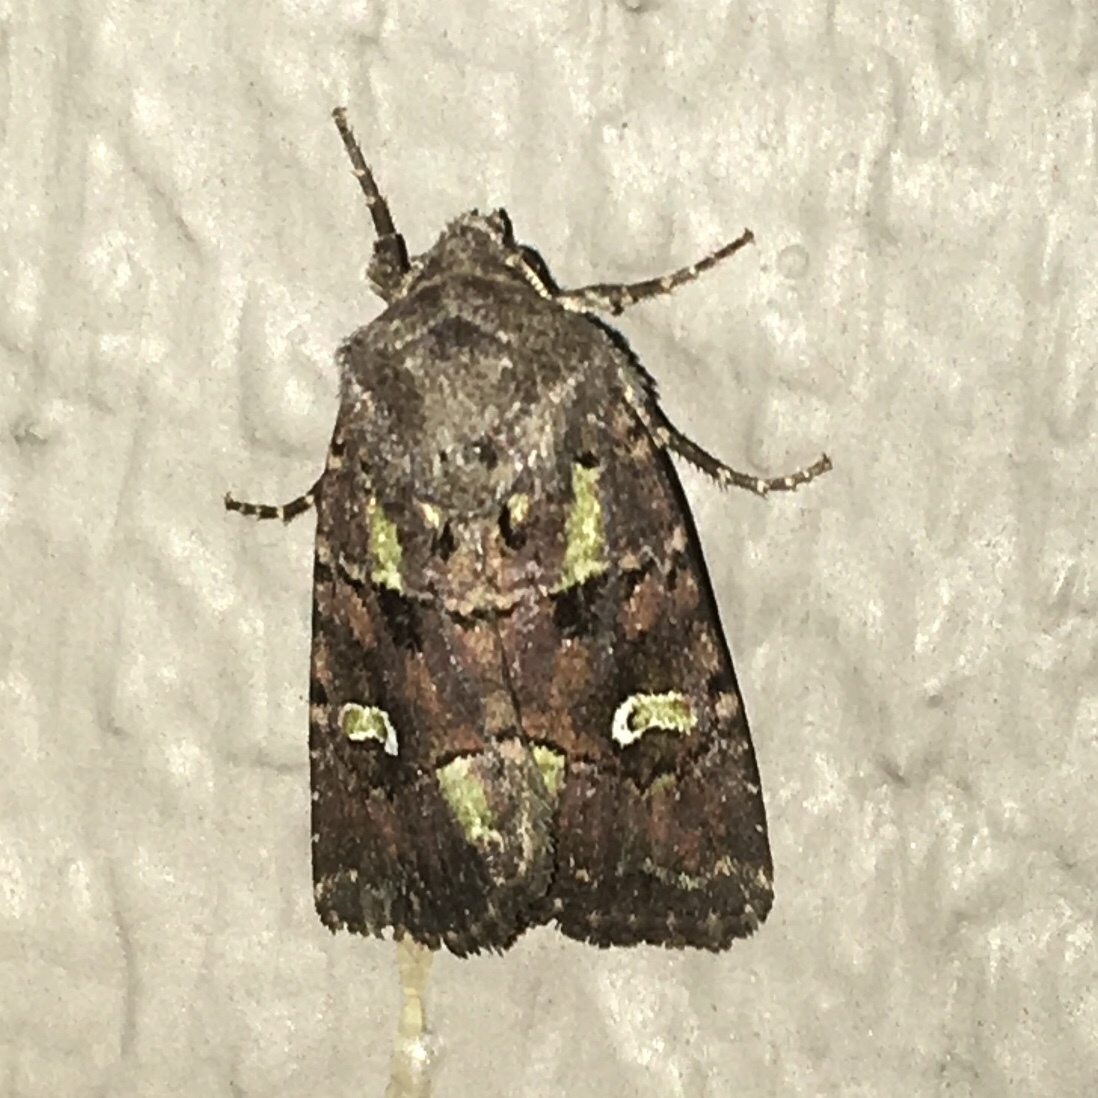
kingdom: Animalia
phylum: Arthropoda
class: Insecta
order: Lepidoptera
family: Noctuidae
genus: Lacinipolia
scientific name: Lacinipolia renigera
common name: Kidney-spotted minor
